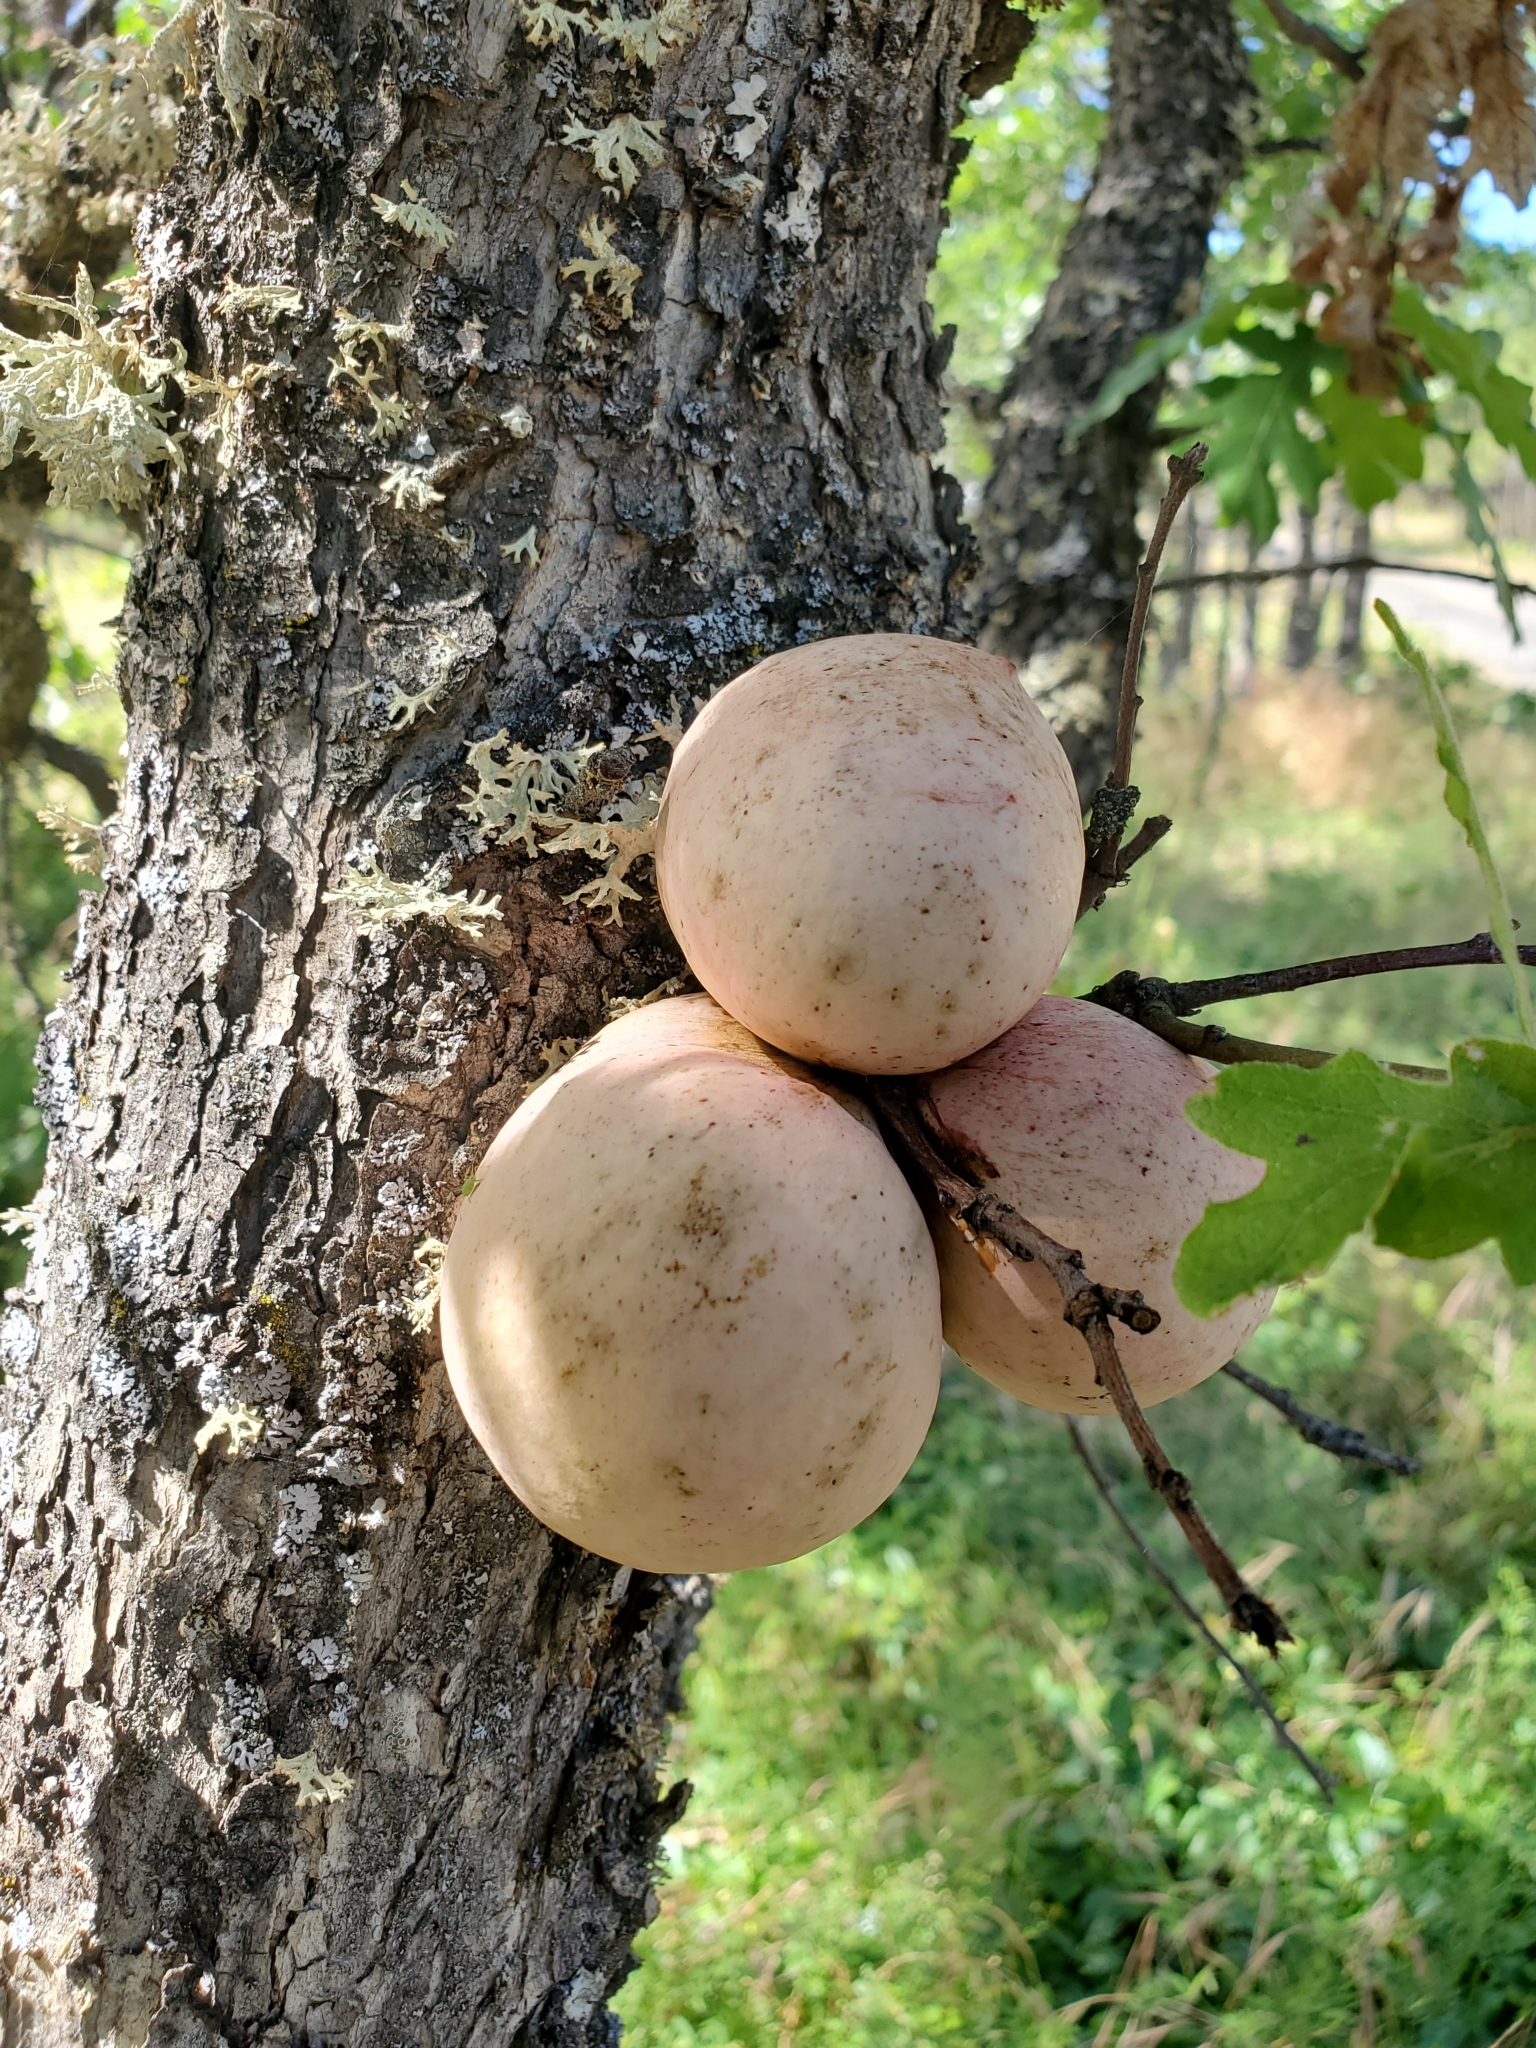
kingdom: Animalia
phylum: Arthropoda
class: Insecta
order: Hymenoptera
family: Cynipidae
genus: Andricus
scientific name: Andricus quercuscalifornicus
